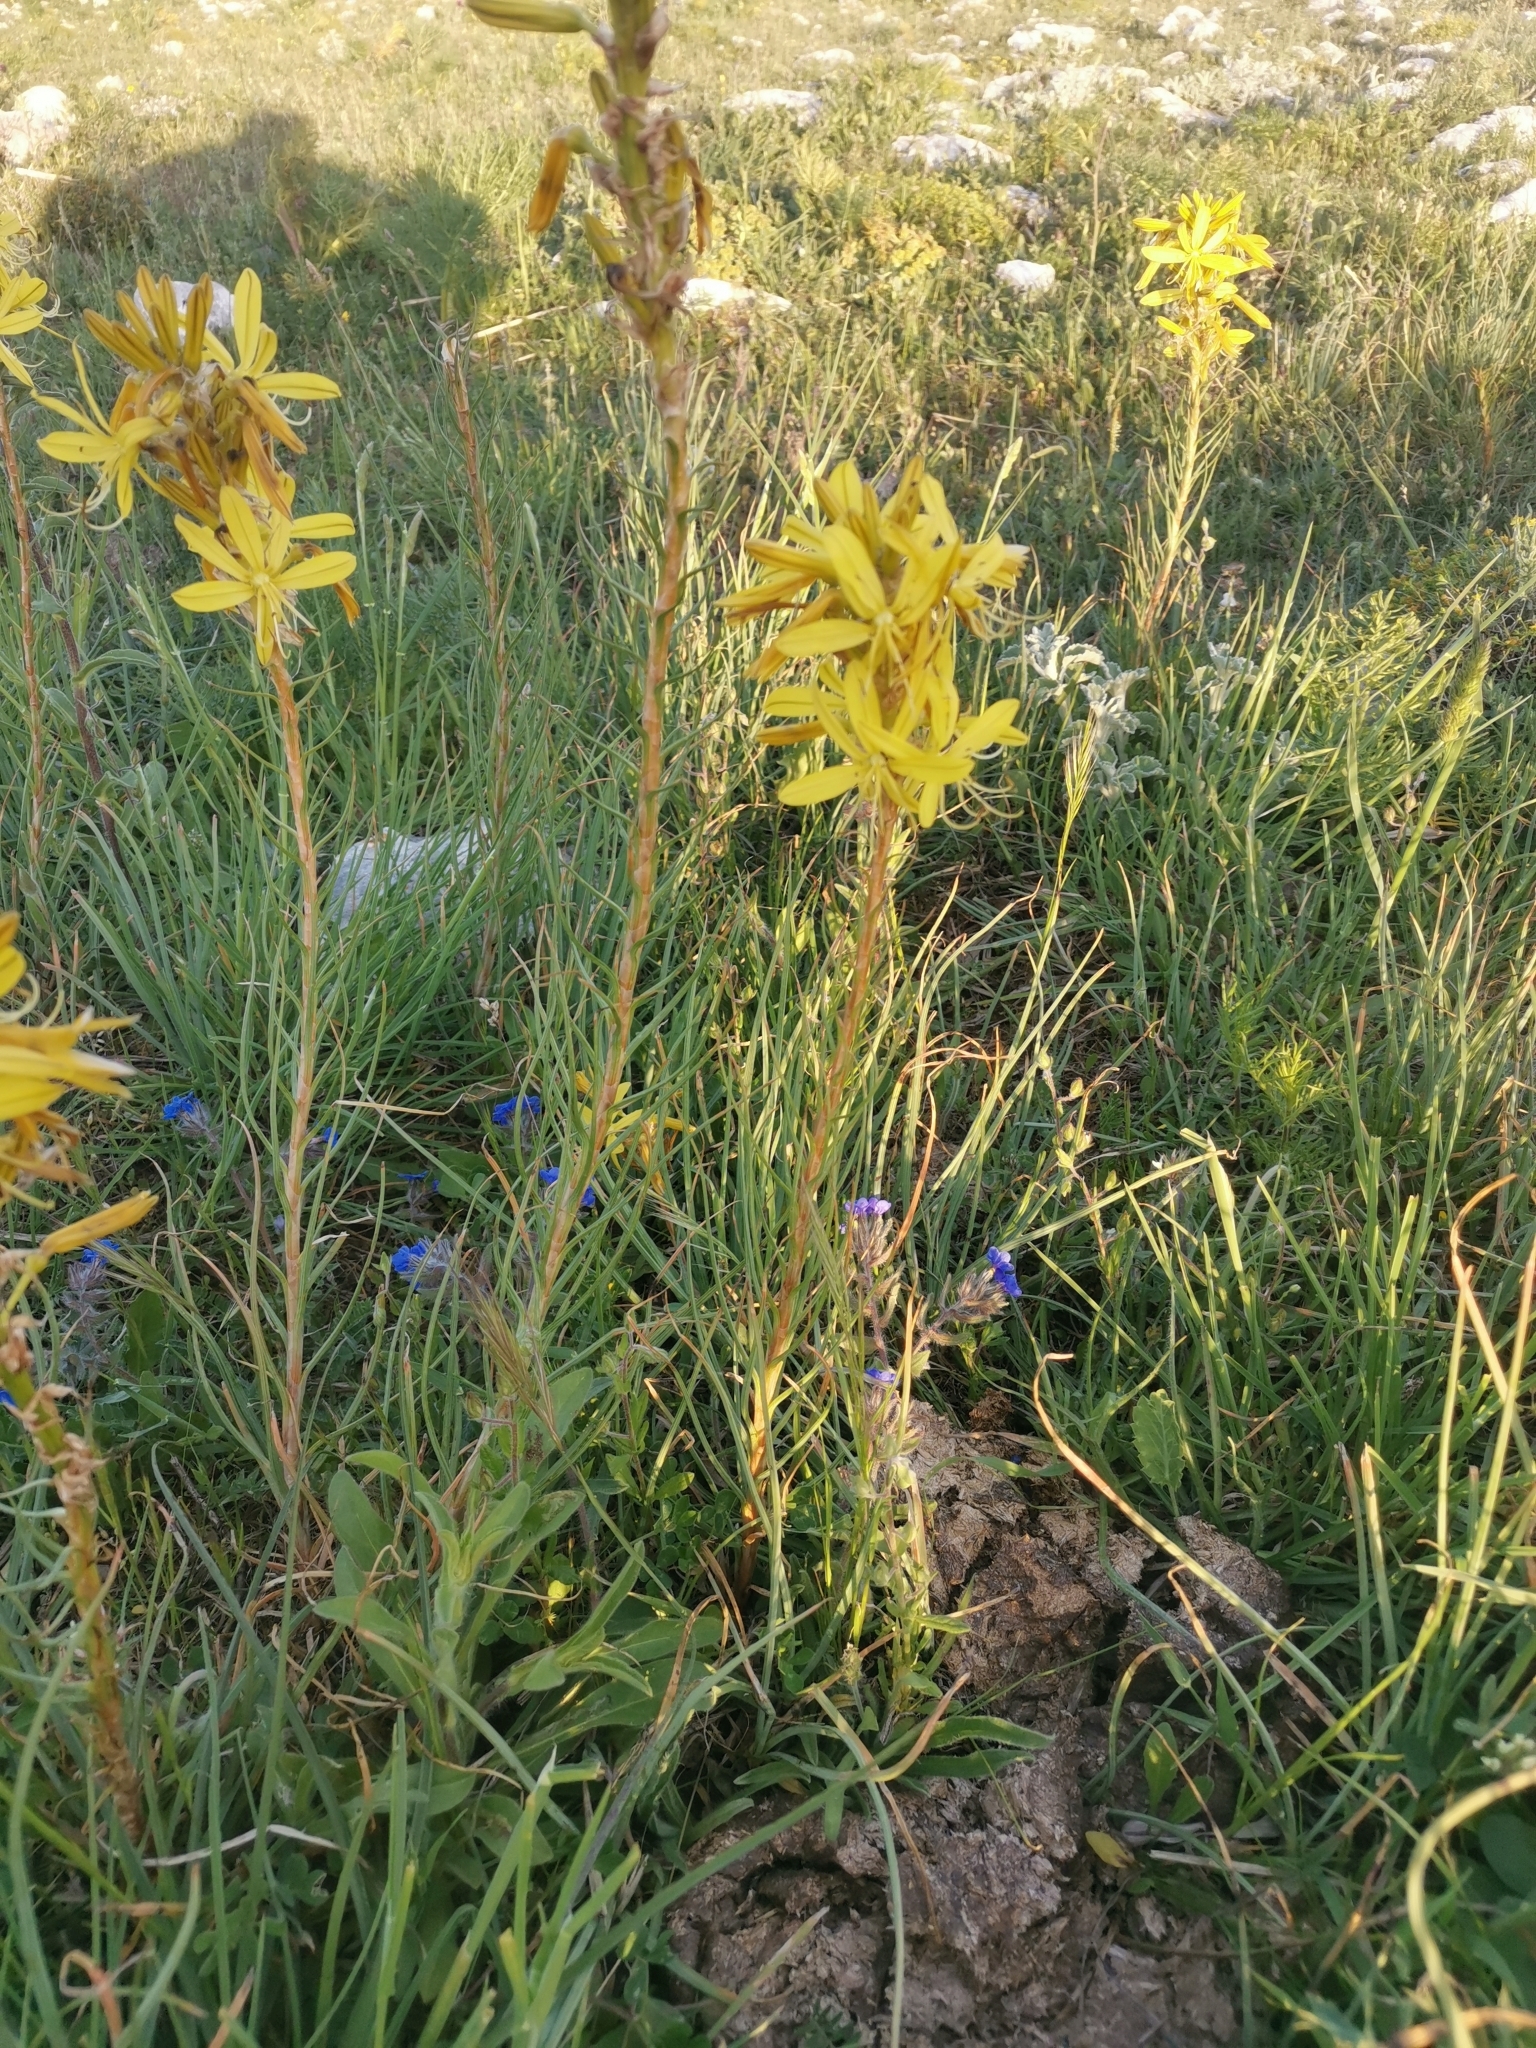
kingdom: Plantae
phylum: Tracheophyta
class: Liliopsida
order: Asparagales
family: Asphodelaceae
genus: Asphodeline
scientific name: Asphodeline lutea
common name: Yellow asphodel
